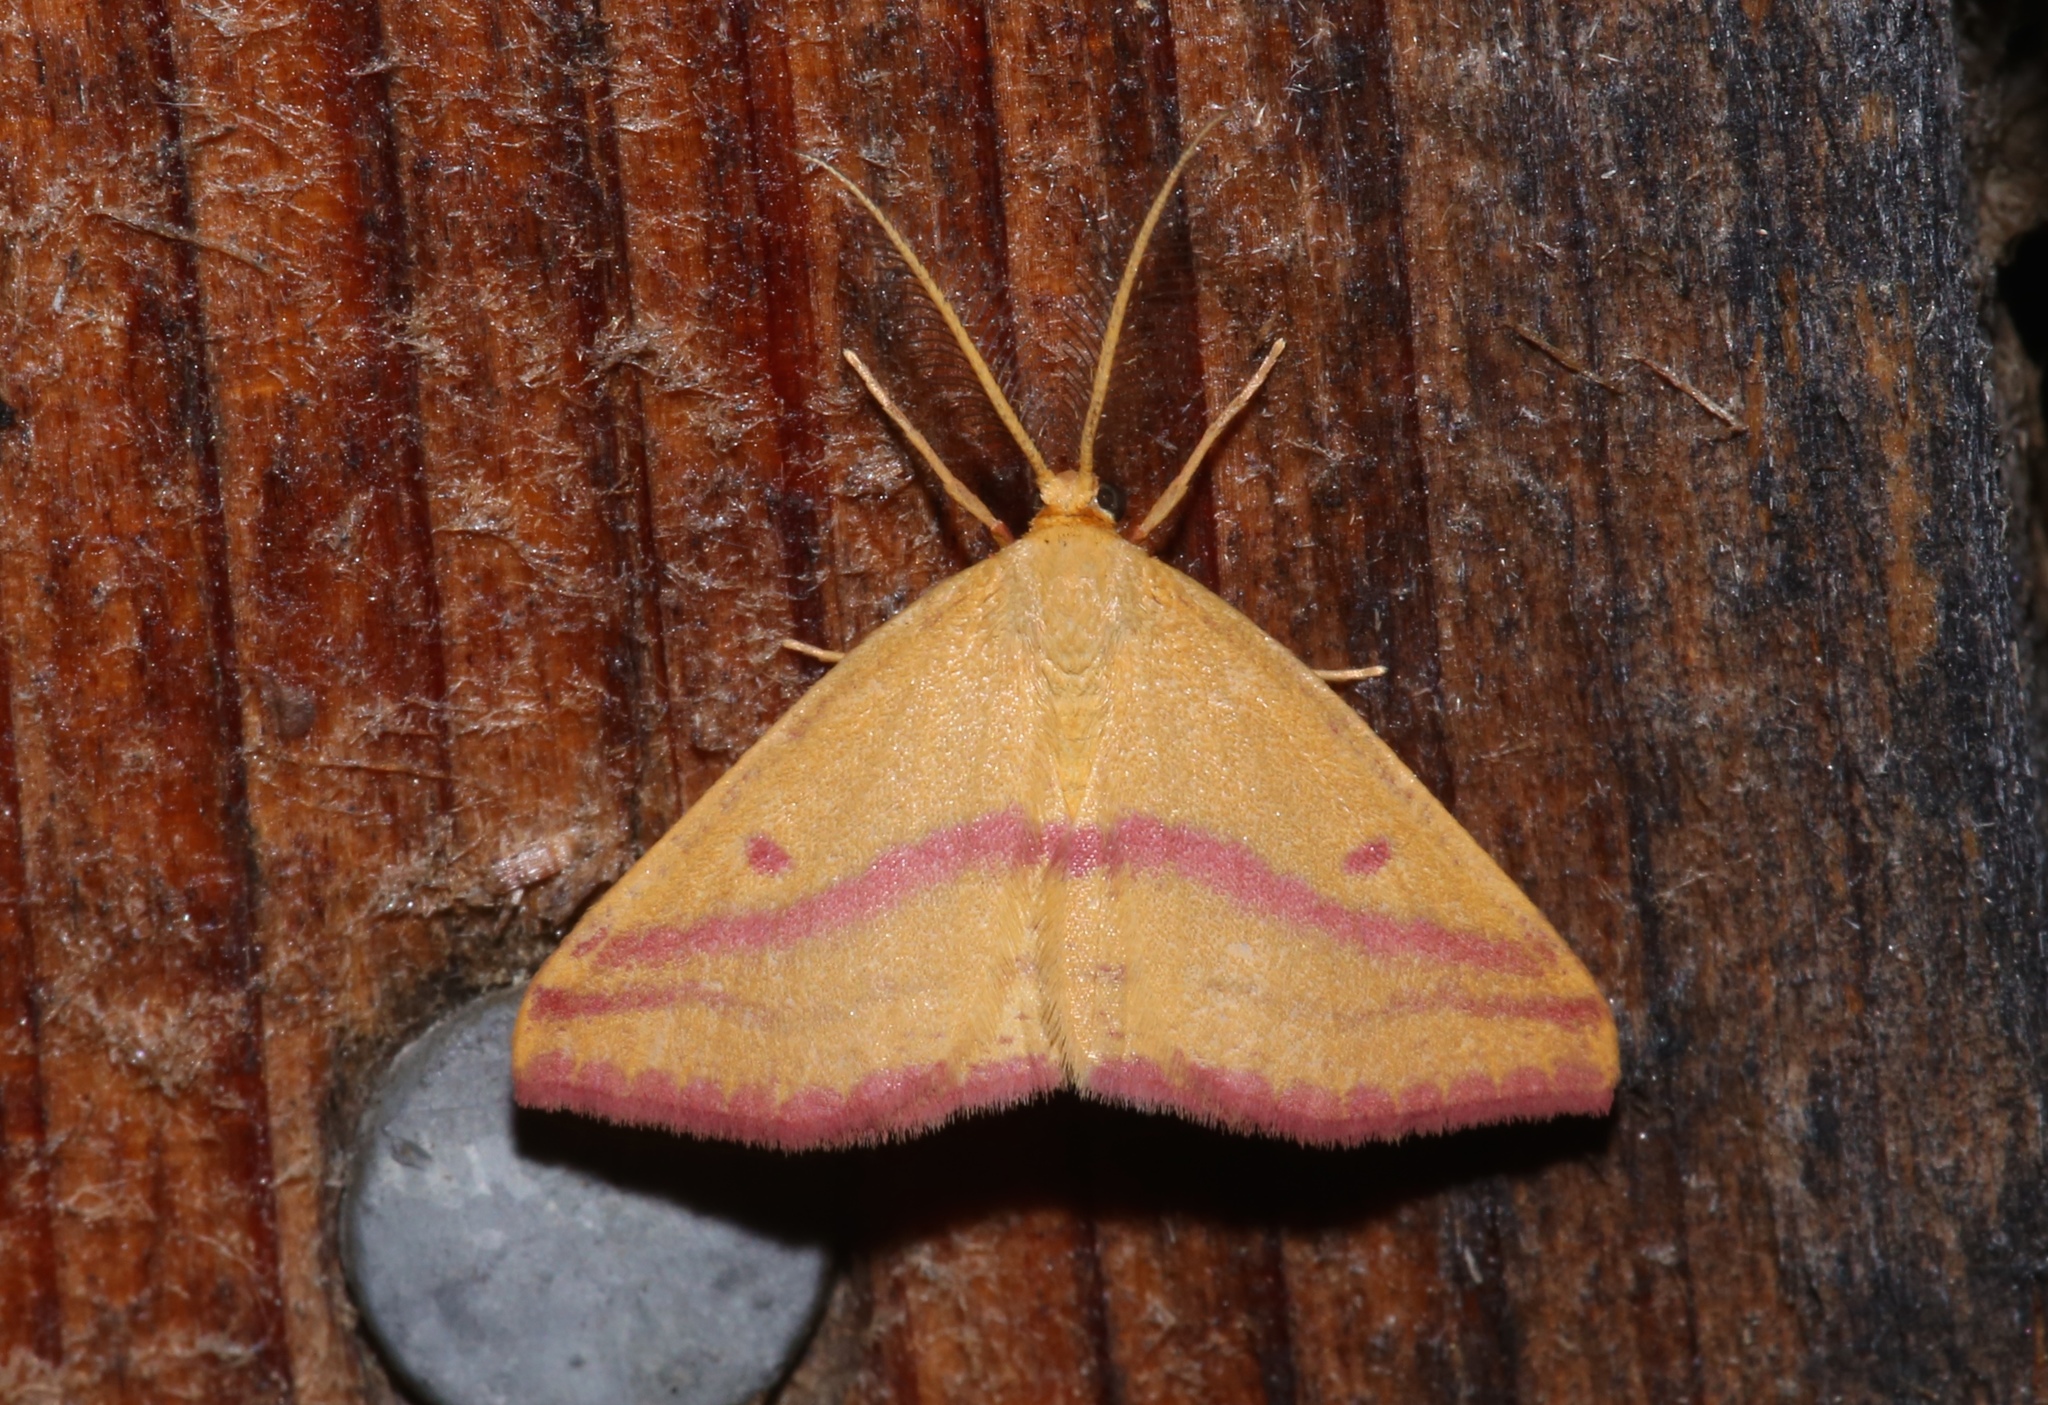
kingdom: Animalia
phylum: Arthropoda
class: Insecta
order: Lepidoptera
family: Geometridae
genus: Haematopis
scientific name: Haematopis grataria
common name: Chickweed geometer
